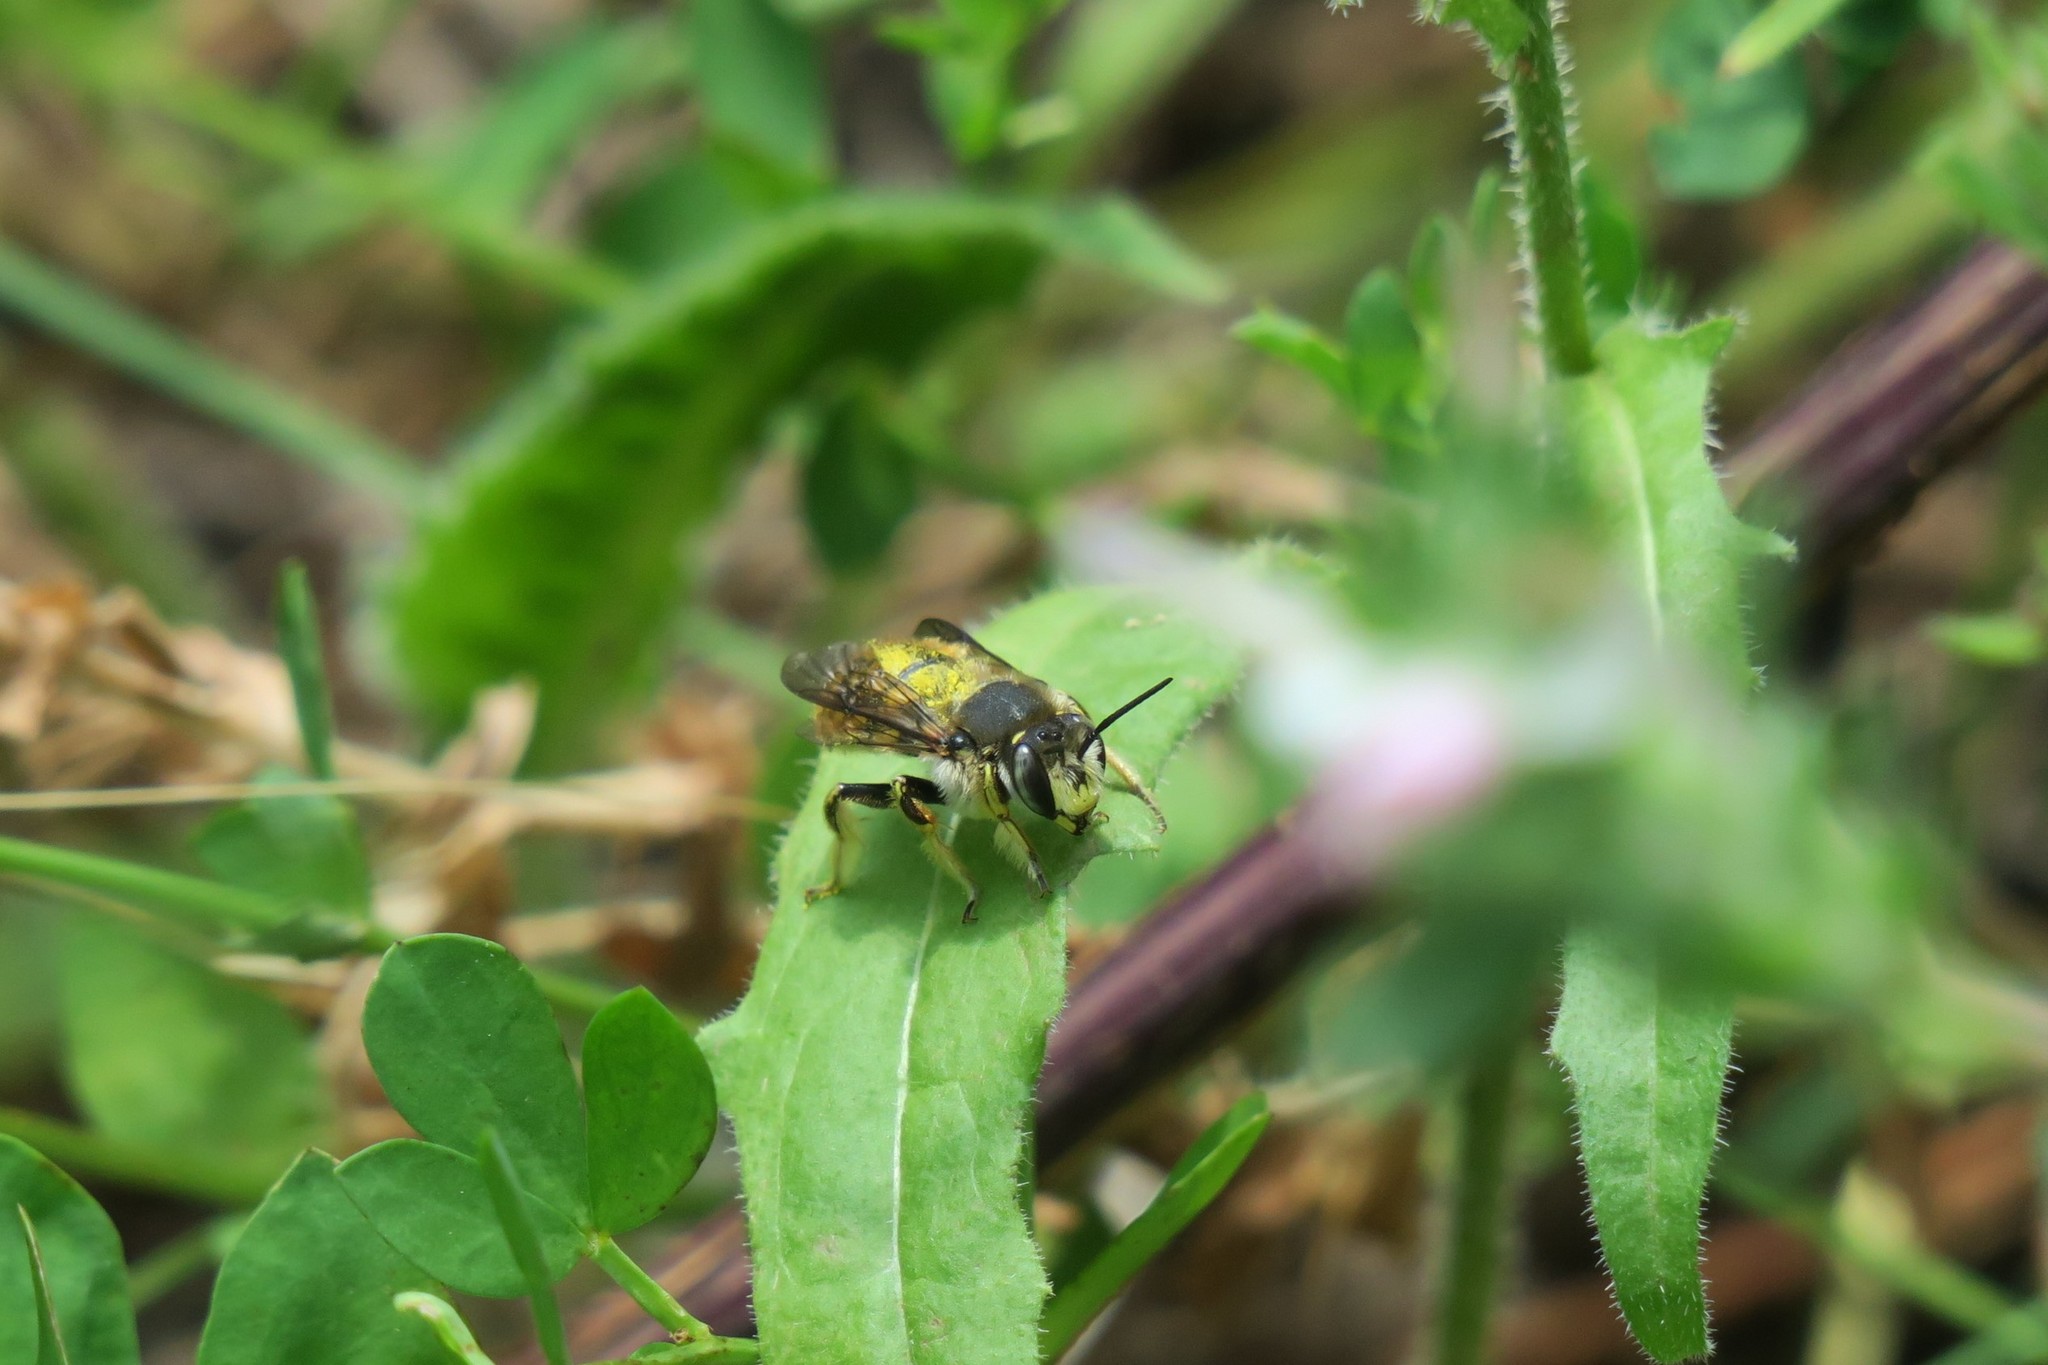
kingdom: Animalia
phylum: Arthropoda
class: Insecta
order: Hymenoptera
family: Megachilidae
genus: Anthidium
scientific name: Anthidium manicatum
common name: Wool carder bee
